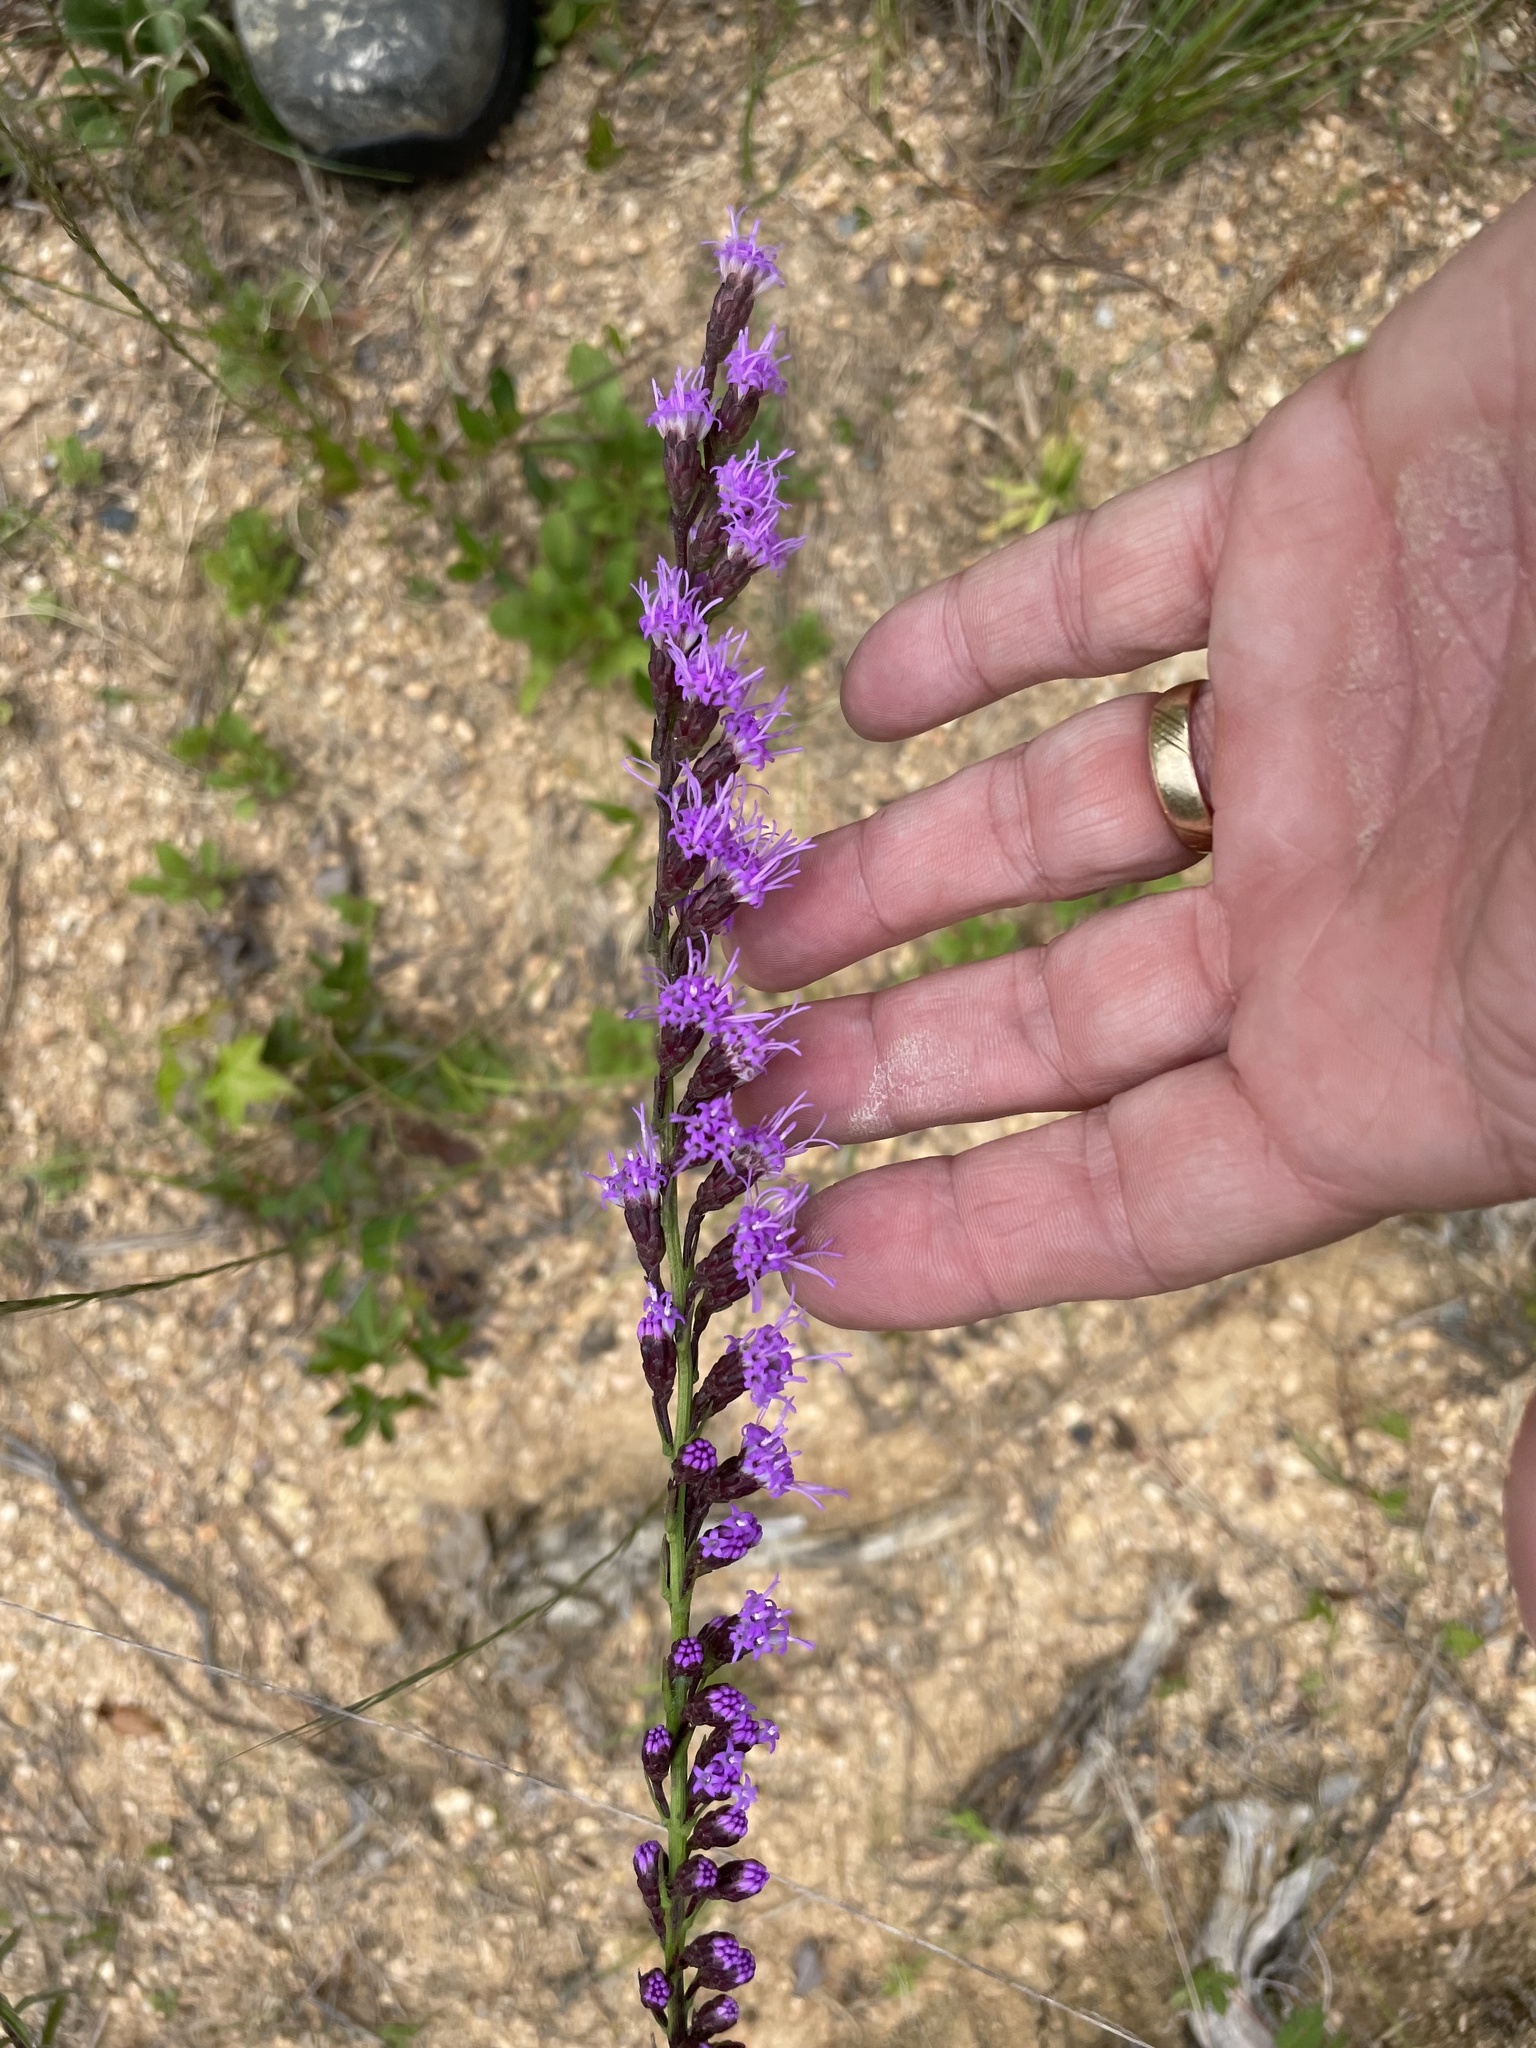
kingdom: Plantae
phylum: Tracheophyta
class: Magnoliopsida
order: Asterales
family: Asteraceae
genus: Liatris
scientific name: Liatris pilosa
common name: Grass-leaf gayfeather
